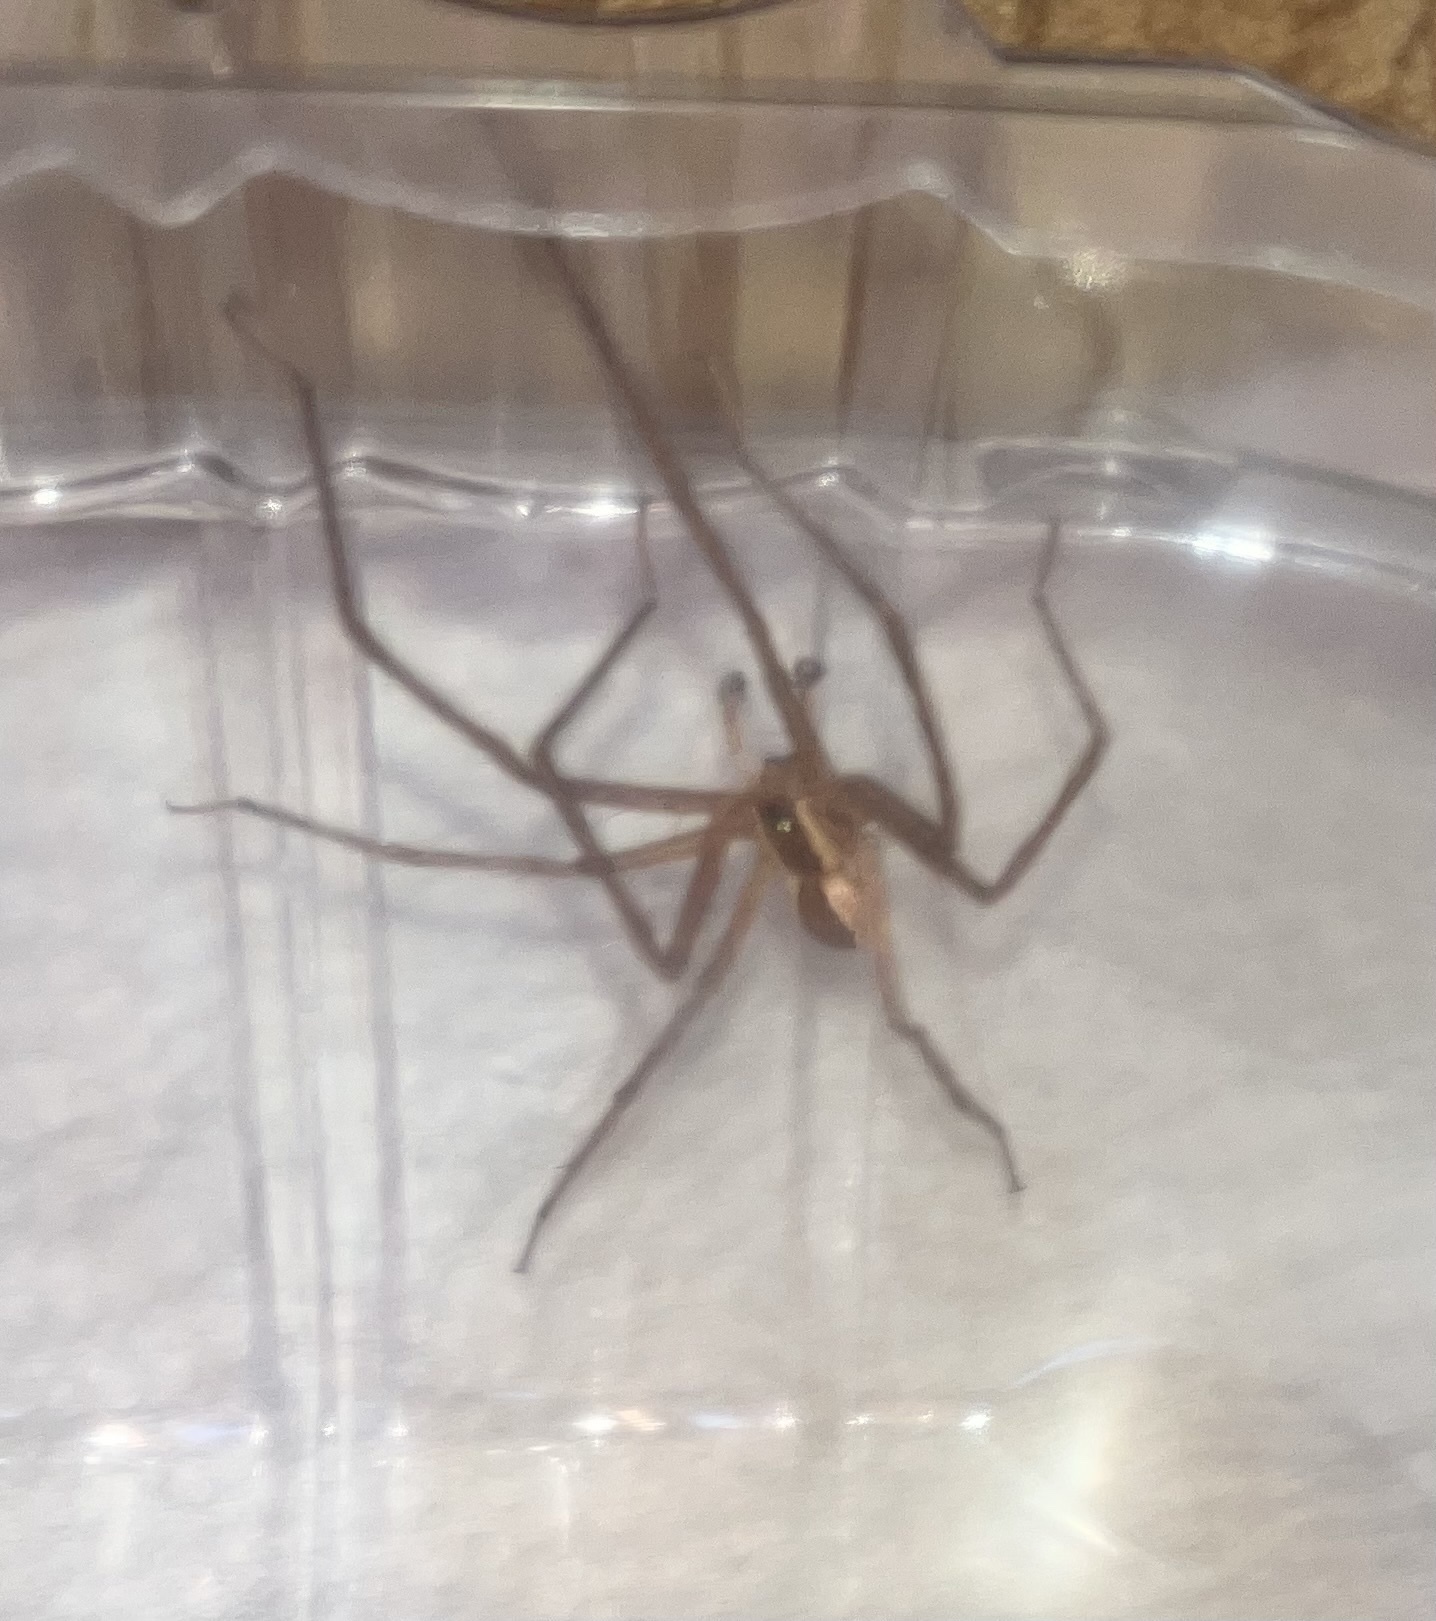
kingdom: Animalia
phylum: Arthropoda
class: Arachnida
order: Araneae
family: Pisauridae
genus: Pisaurina
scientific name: Pisaurina mira
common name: American nursery web spider
